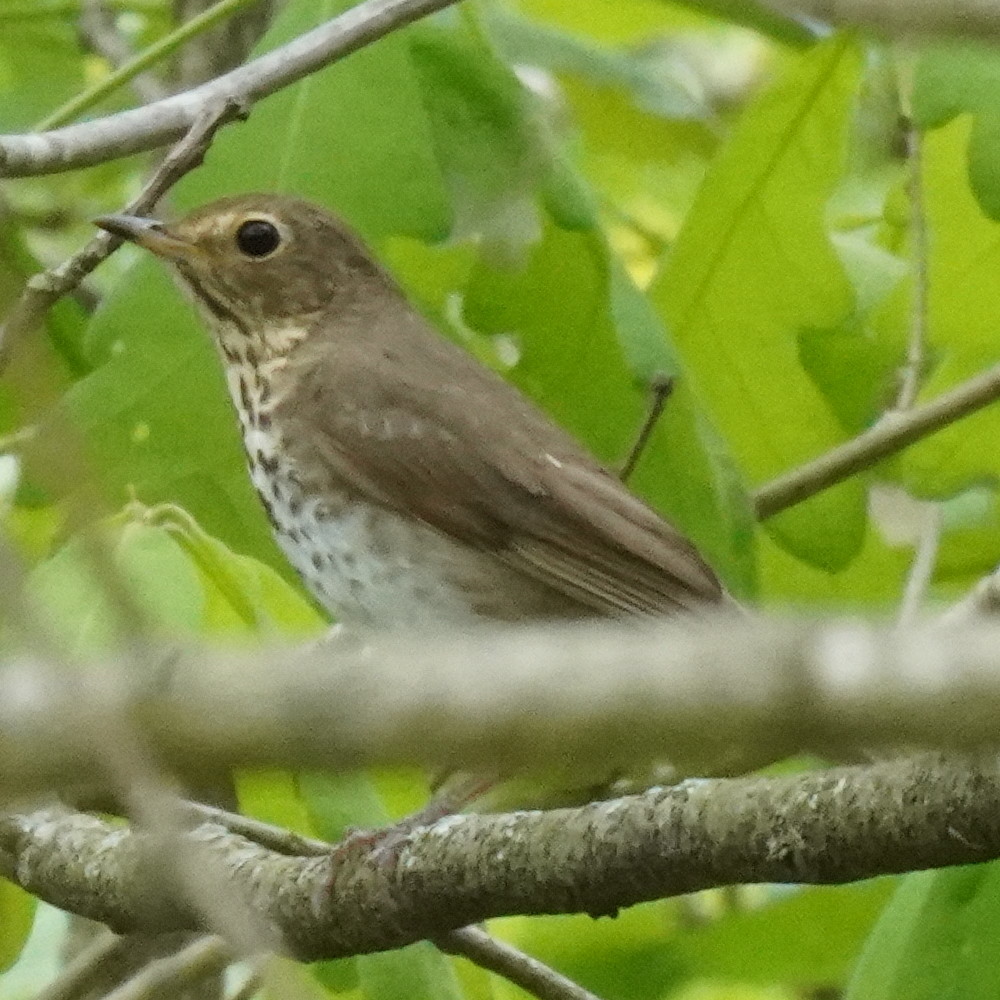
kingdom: Animalia
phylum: Chordata
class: Aves
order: Passeriformes
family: Turdidae
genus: Catharus
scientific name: Catharus ustulatus
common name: Swainson's thrush
